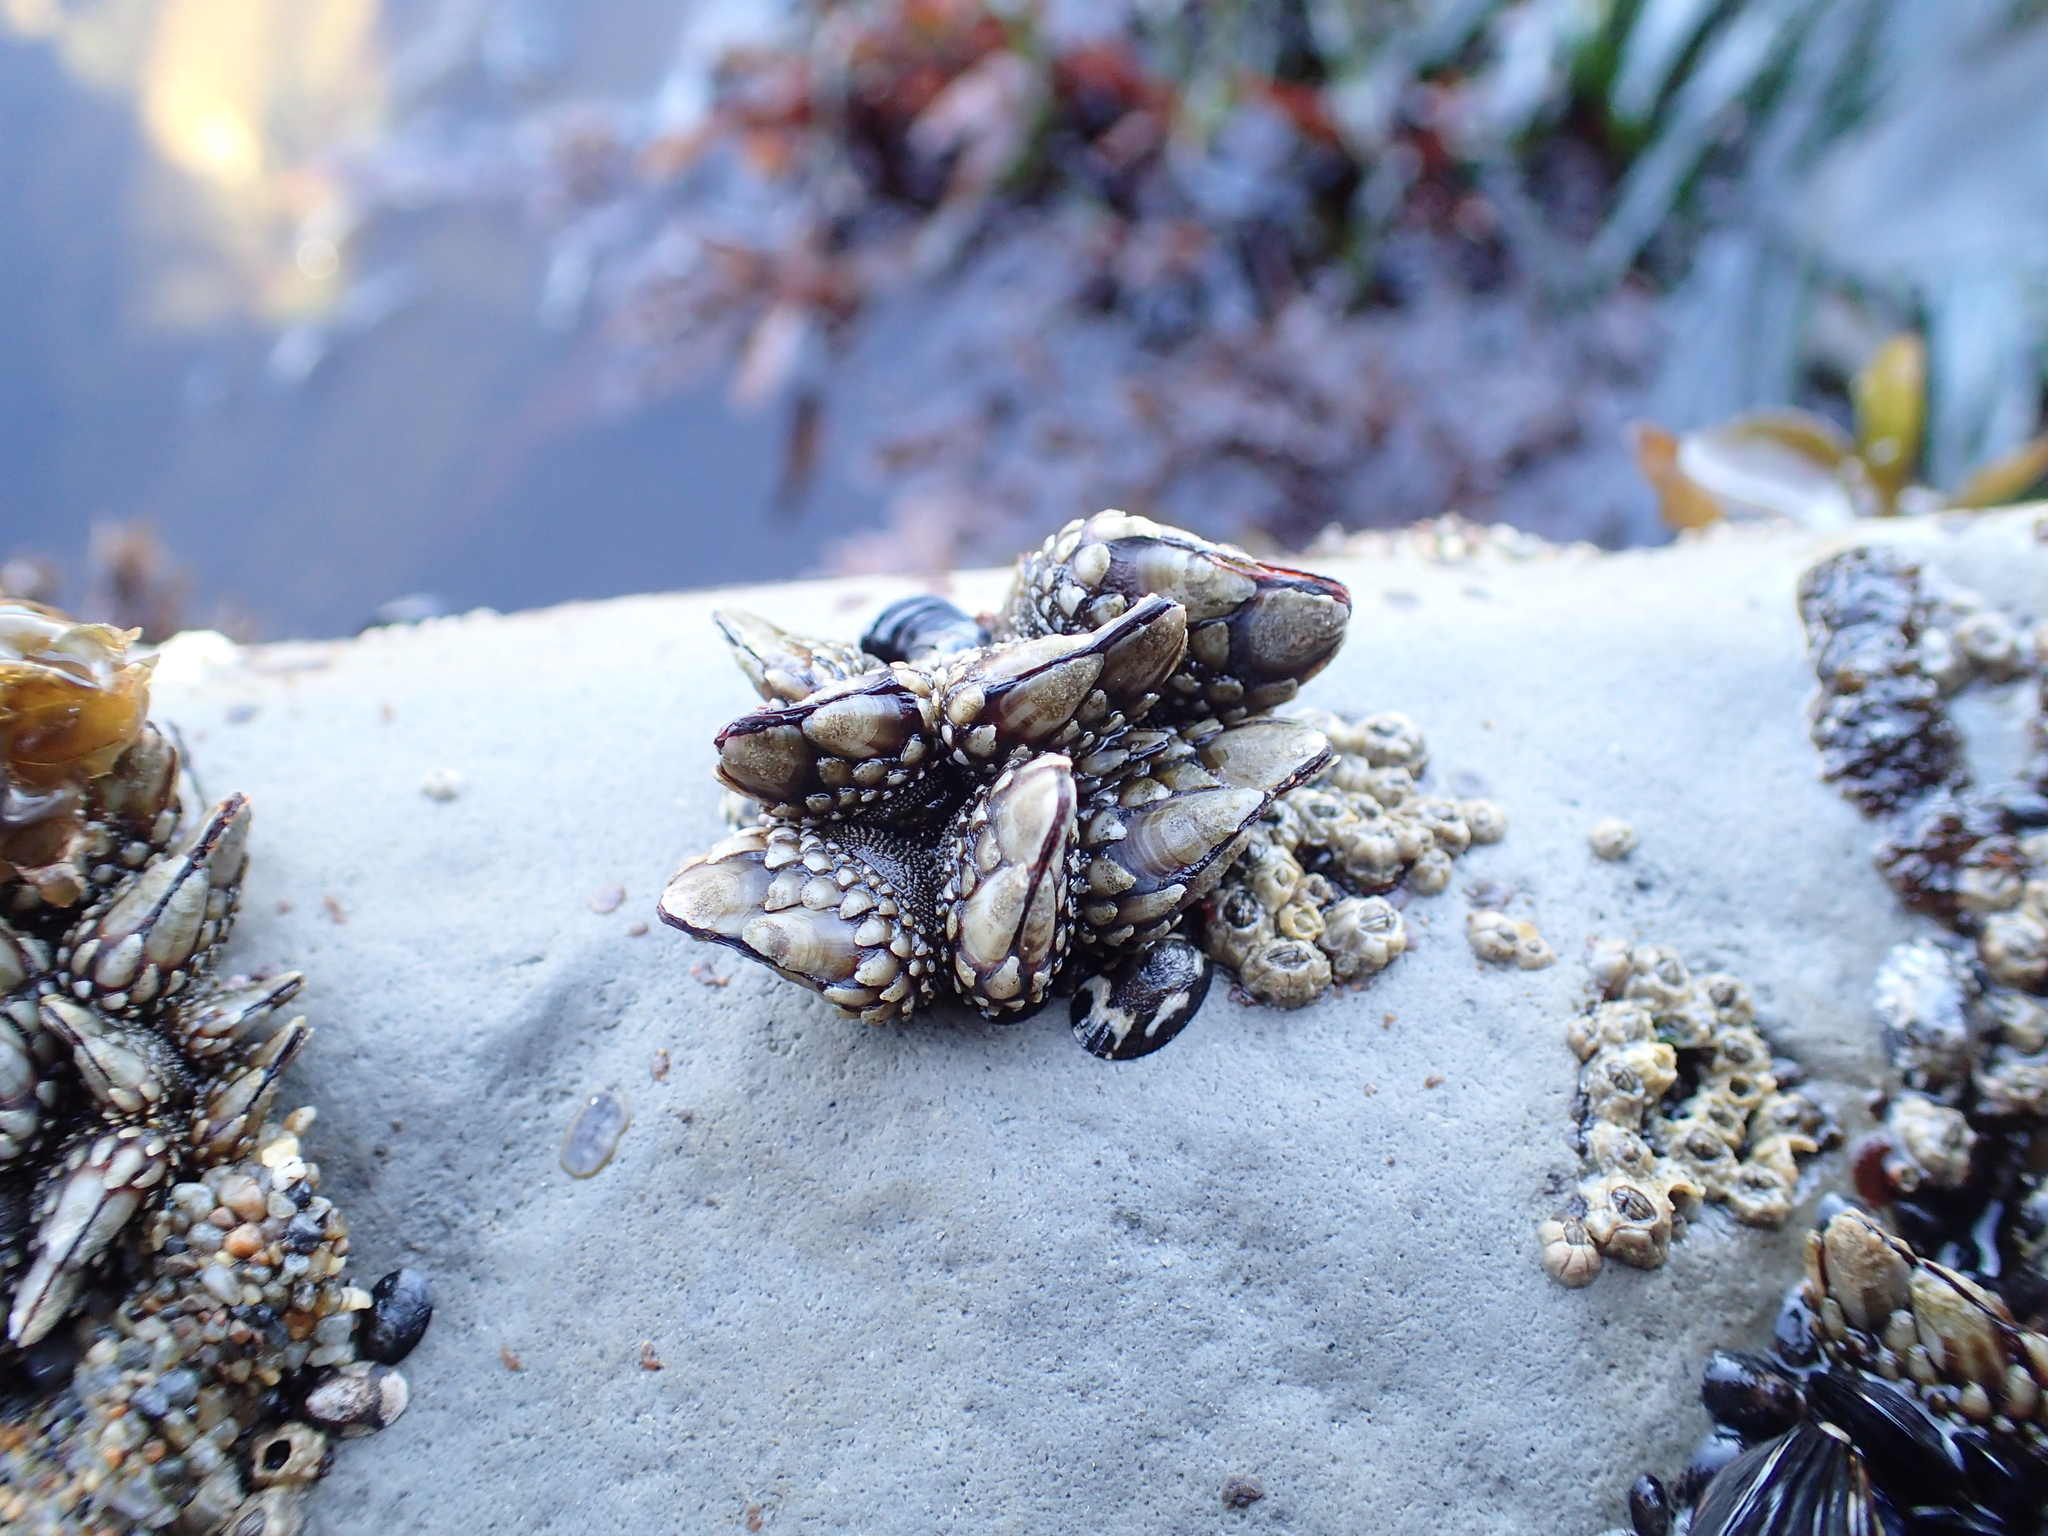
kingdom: Animalia
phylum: Arthropoda
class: Maxillopoda
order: Pedunculata
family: Pollicipedidae
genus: Pollicipes
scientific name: Pollicipes polymerus
